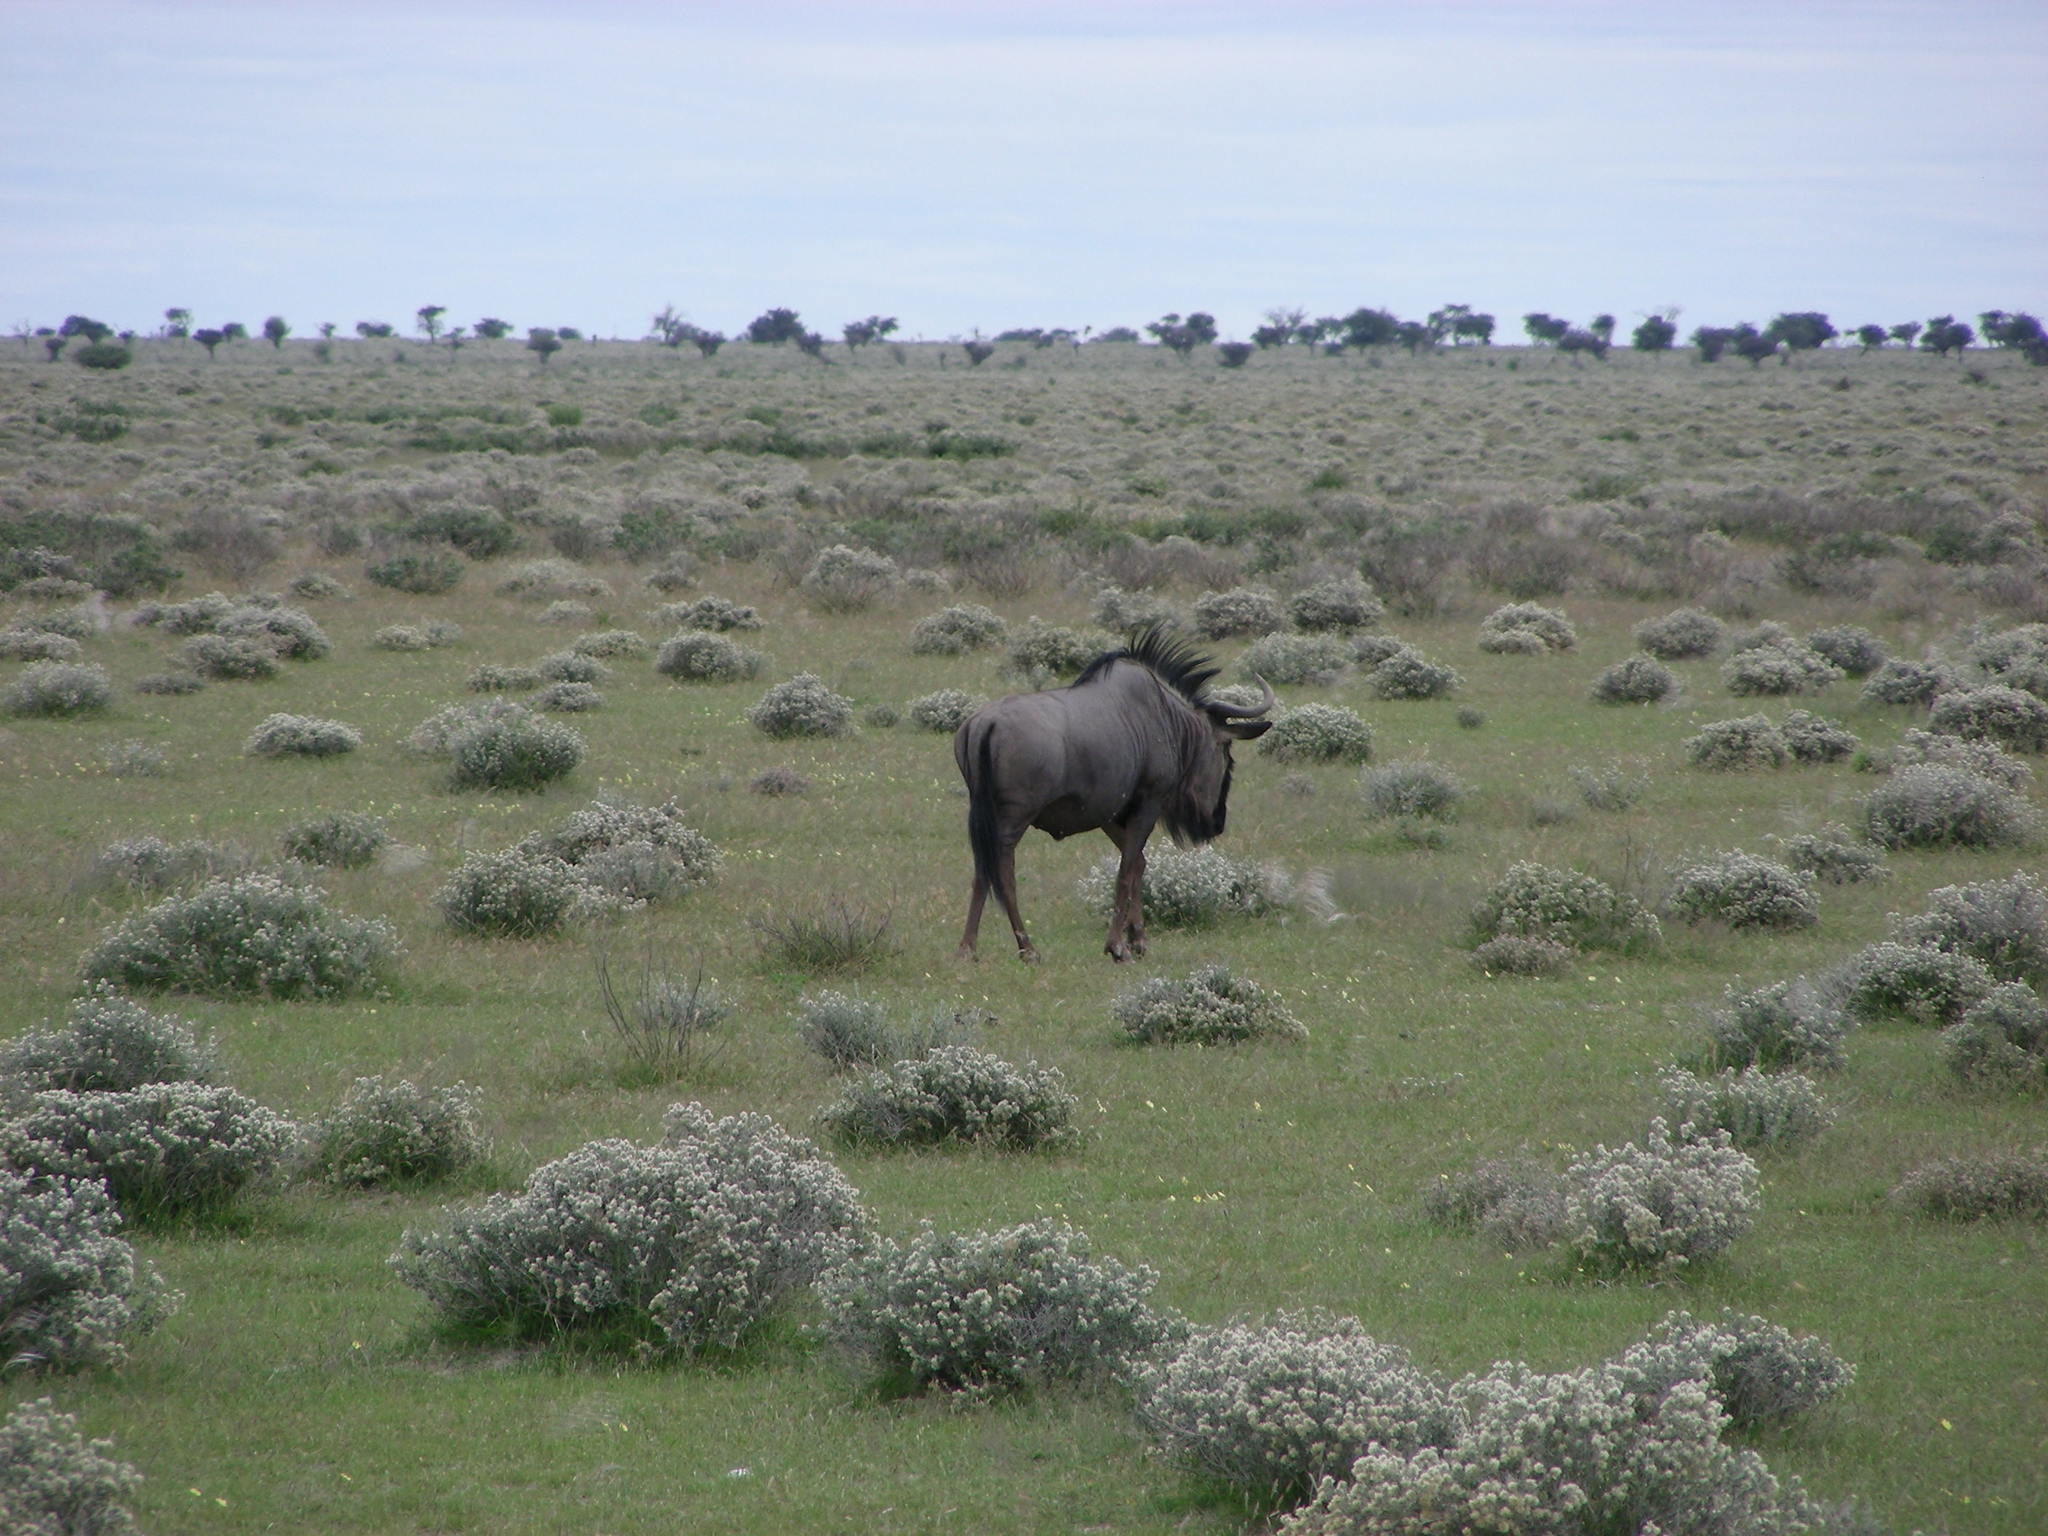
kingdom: Animalia
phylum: Chordata
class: Mammalia
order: Artiodactyla
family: Bovidae
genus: Connochaetes
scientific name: Connochaetes taurinus
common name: Blue wildebeest
